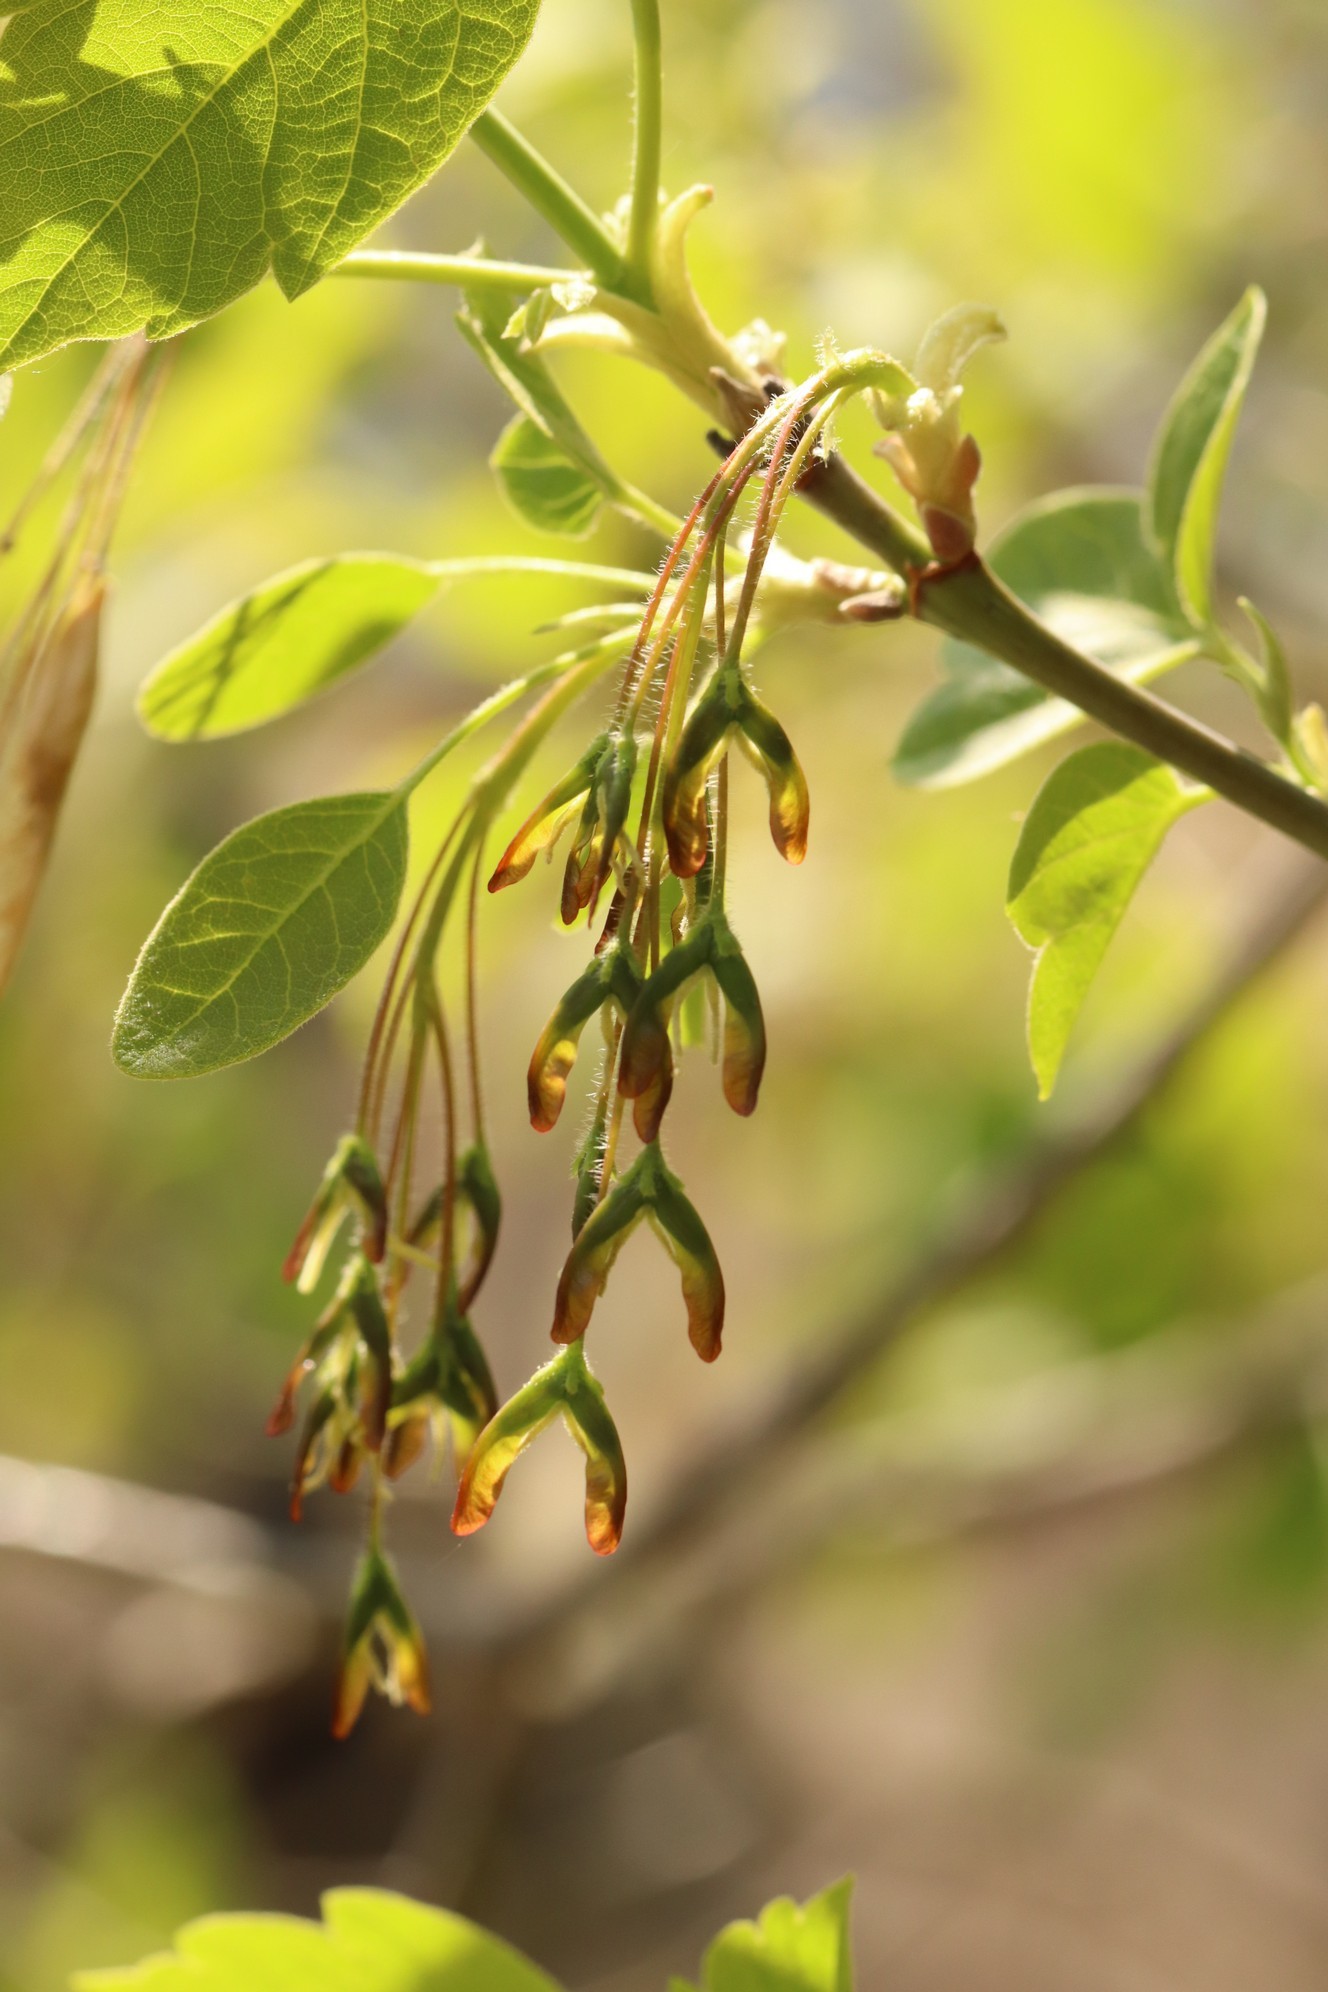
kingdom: Plantae
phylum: Tracheophyta
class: Magnoliopsida
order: Sapindales
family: Sapindaceae
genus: Acer
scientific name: Acer negundo
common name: Ashleaf maple
